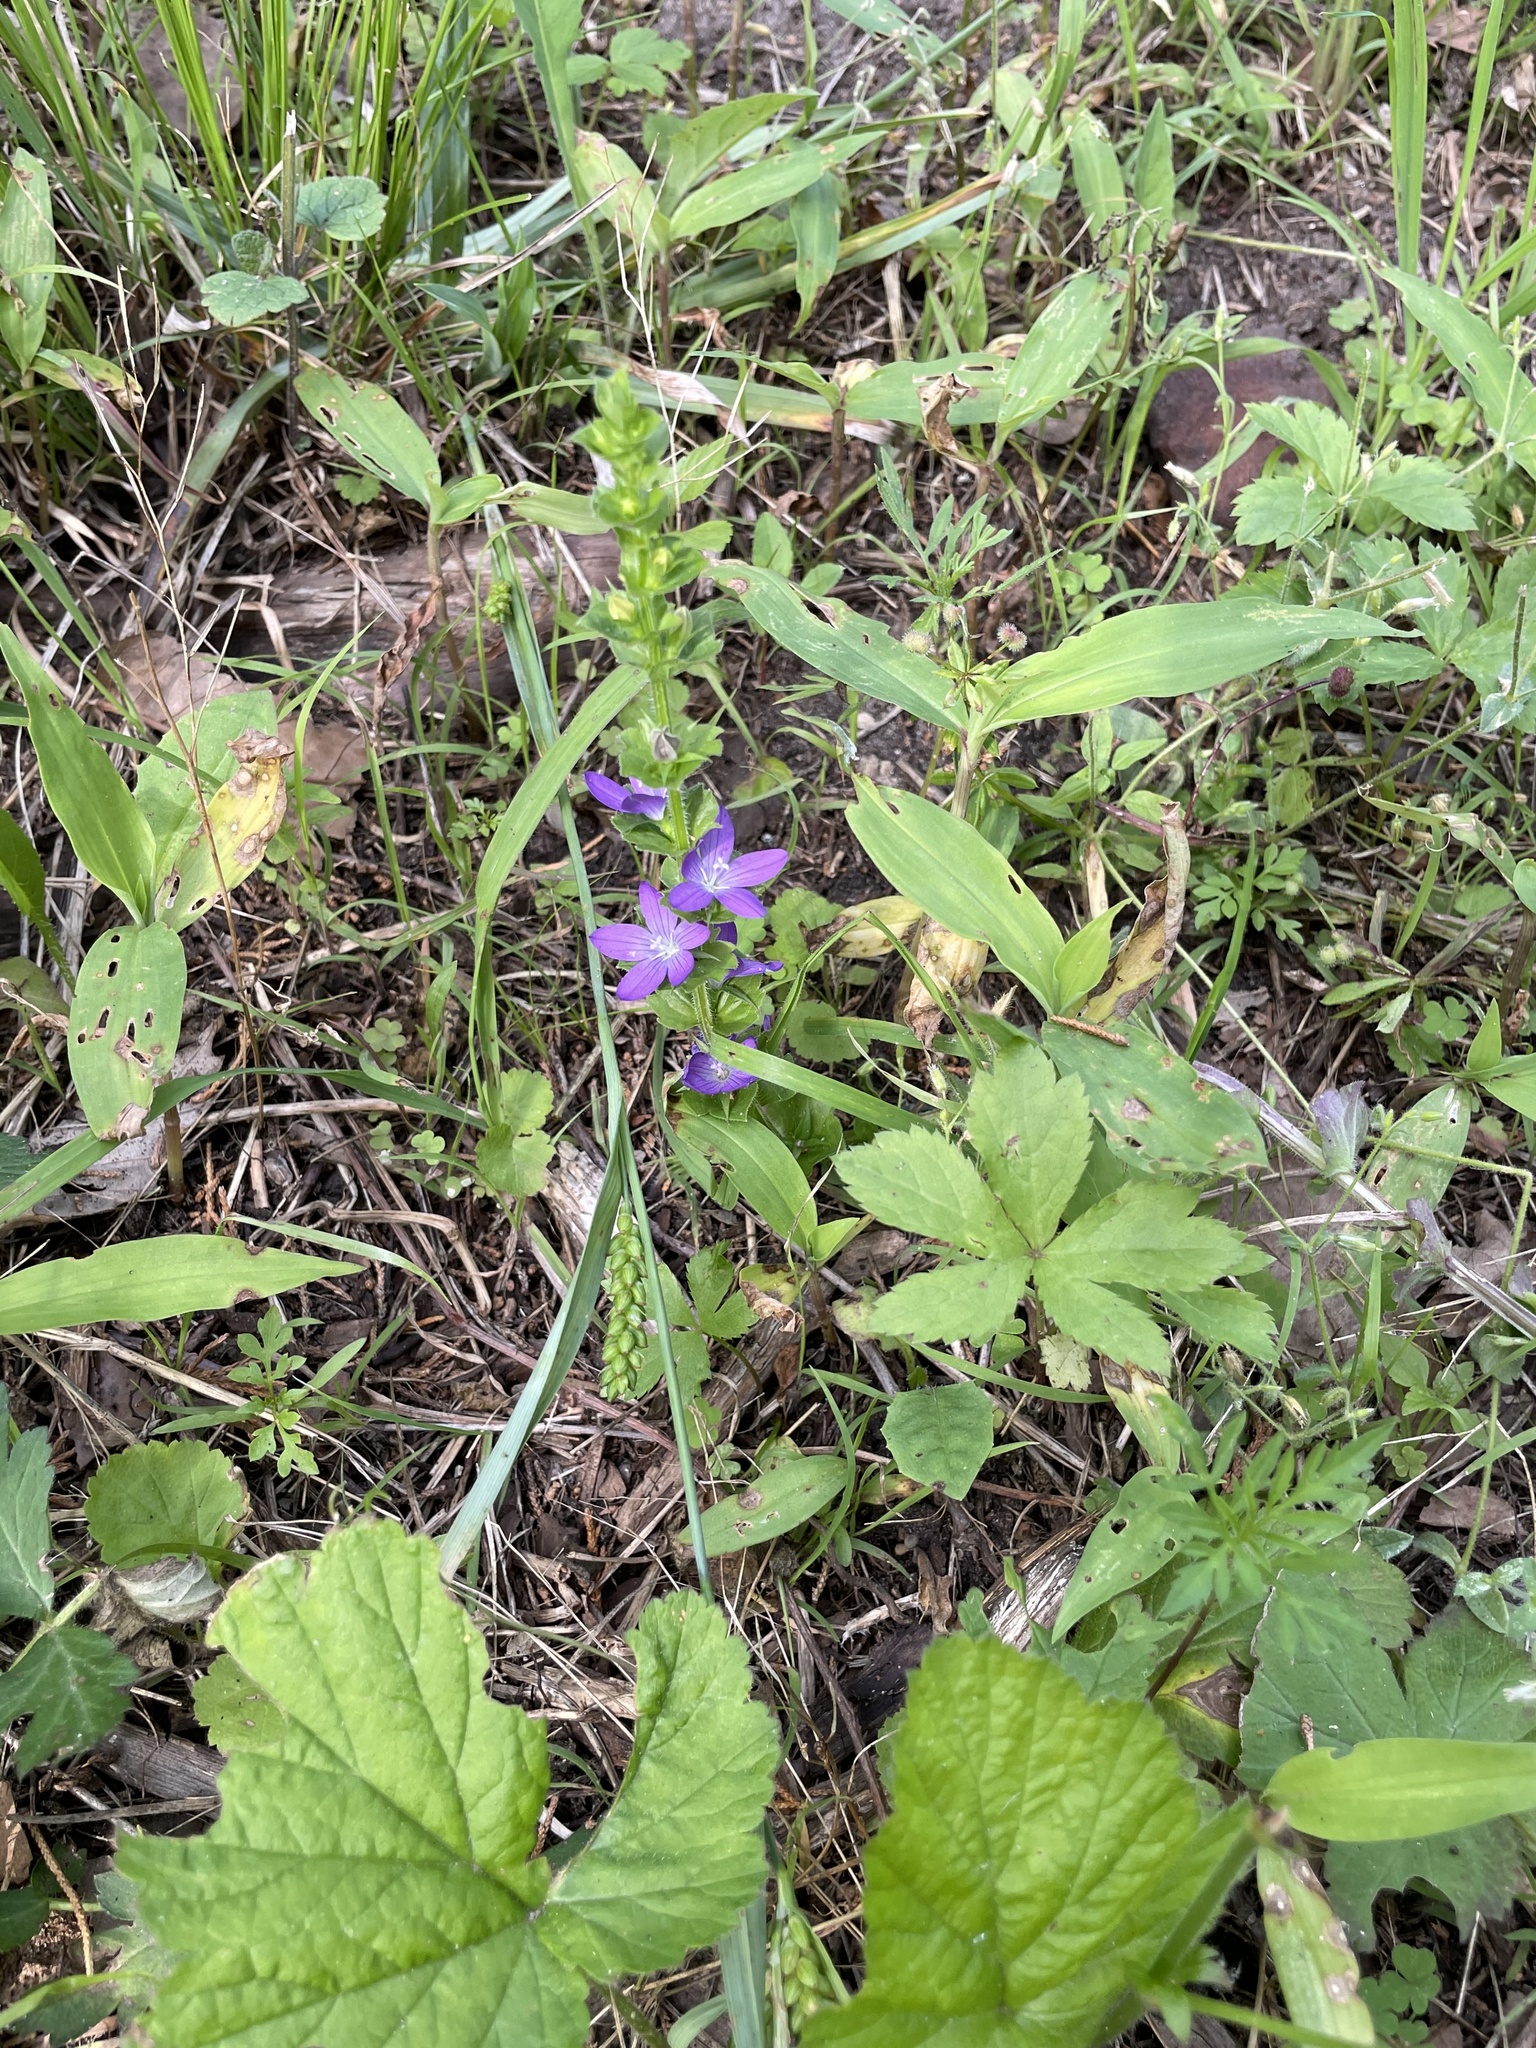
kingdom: Plantae
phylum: Tracheophyta
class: Magnoliopsida
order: Asterales
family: Campanulaceae
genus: Triodanis
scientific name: Triodanis perfoliata
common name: Clasping venus' looking-glass
